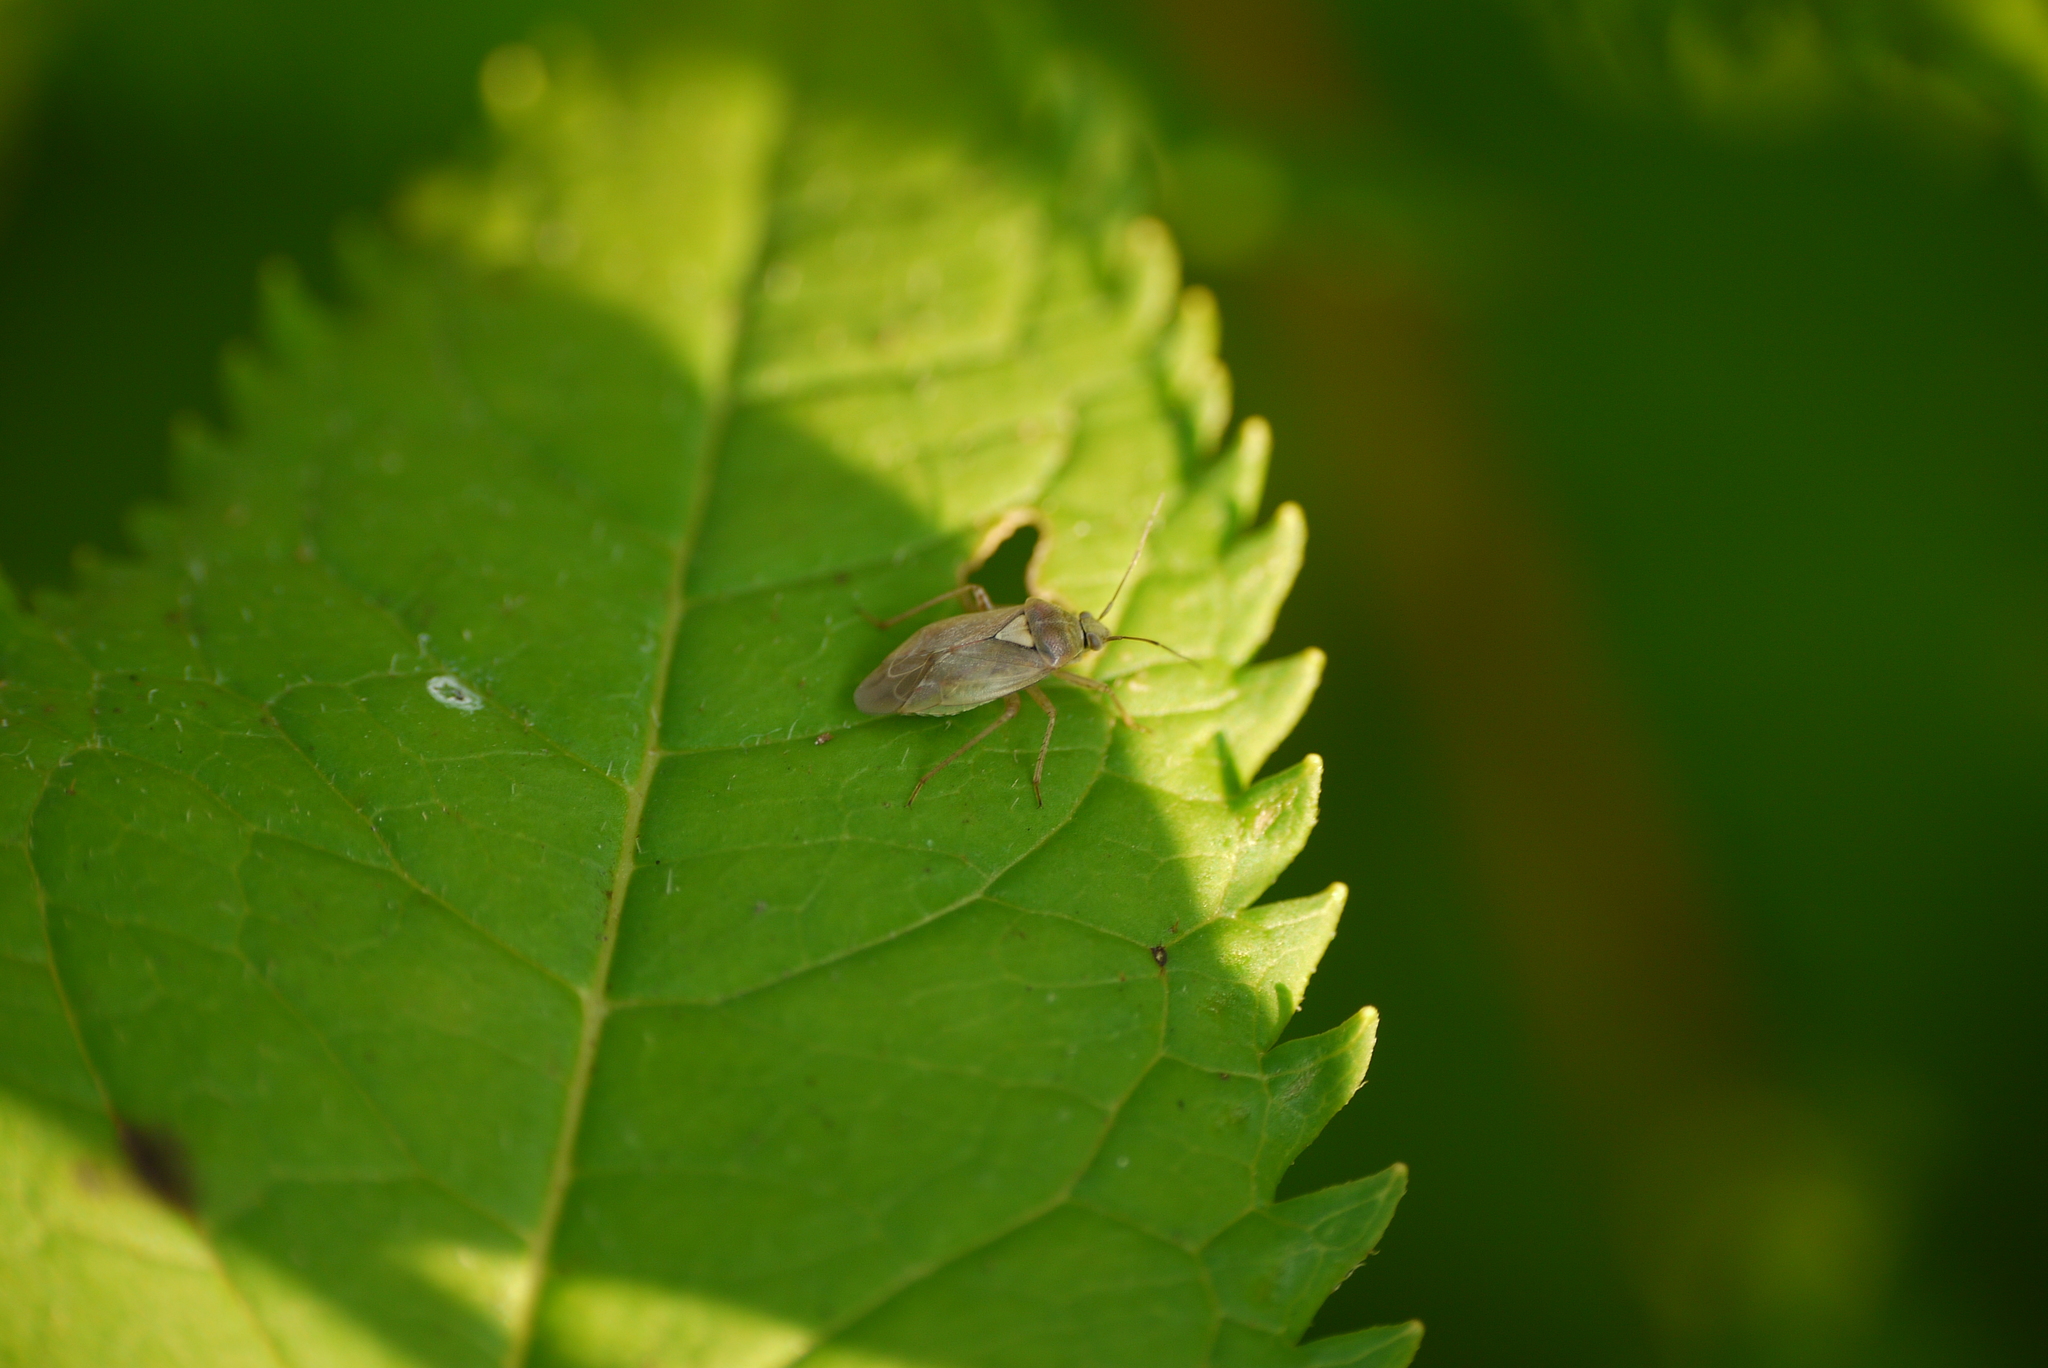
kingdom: Animalia
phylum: Arthropoda
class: Insecta
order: Hemiptera
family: Miridae
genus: Lygus
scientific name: Lygus rugulipennis
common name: European tarnished plant bug
